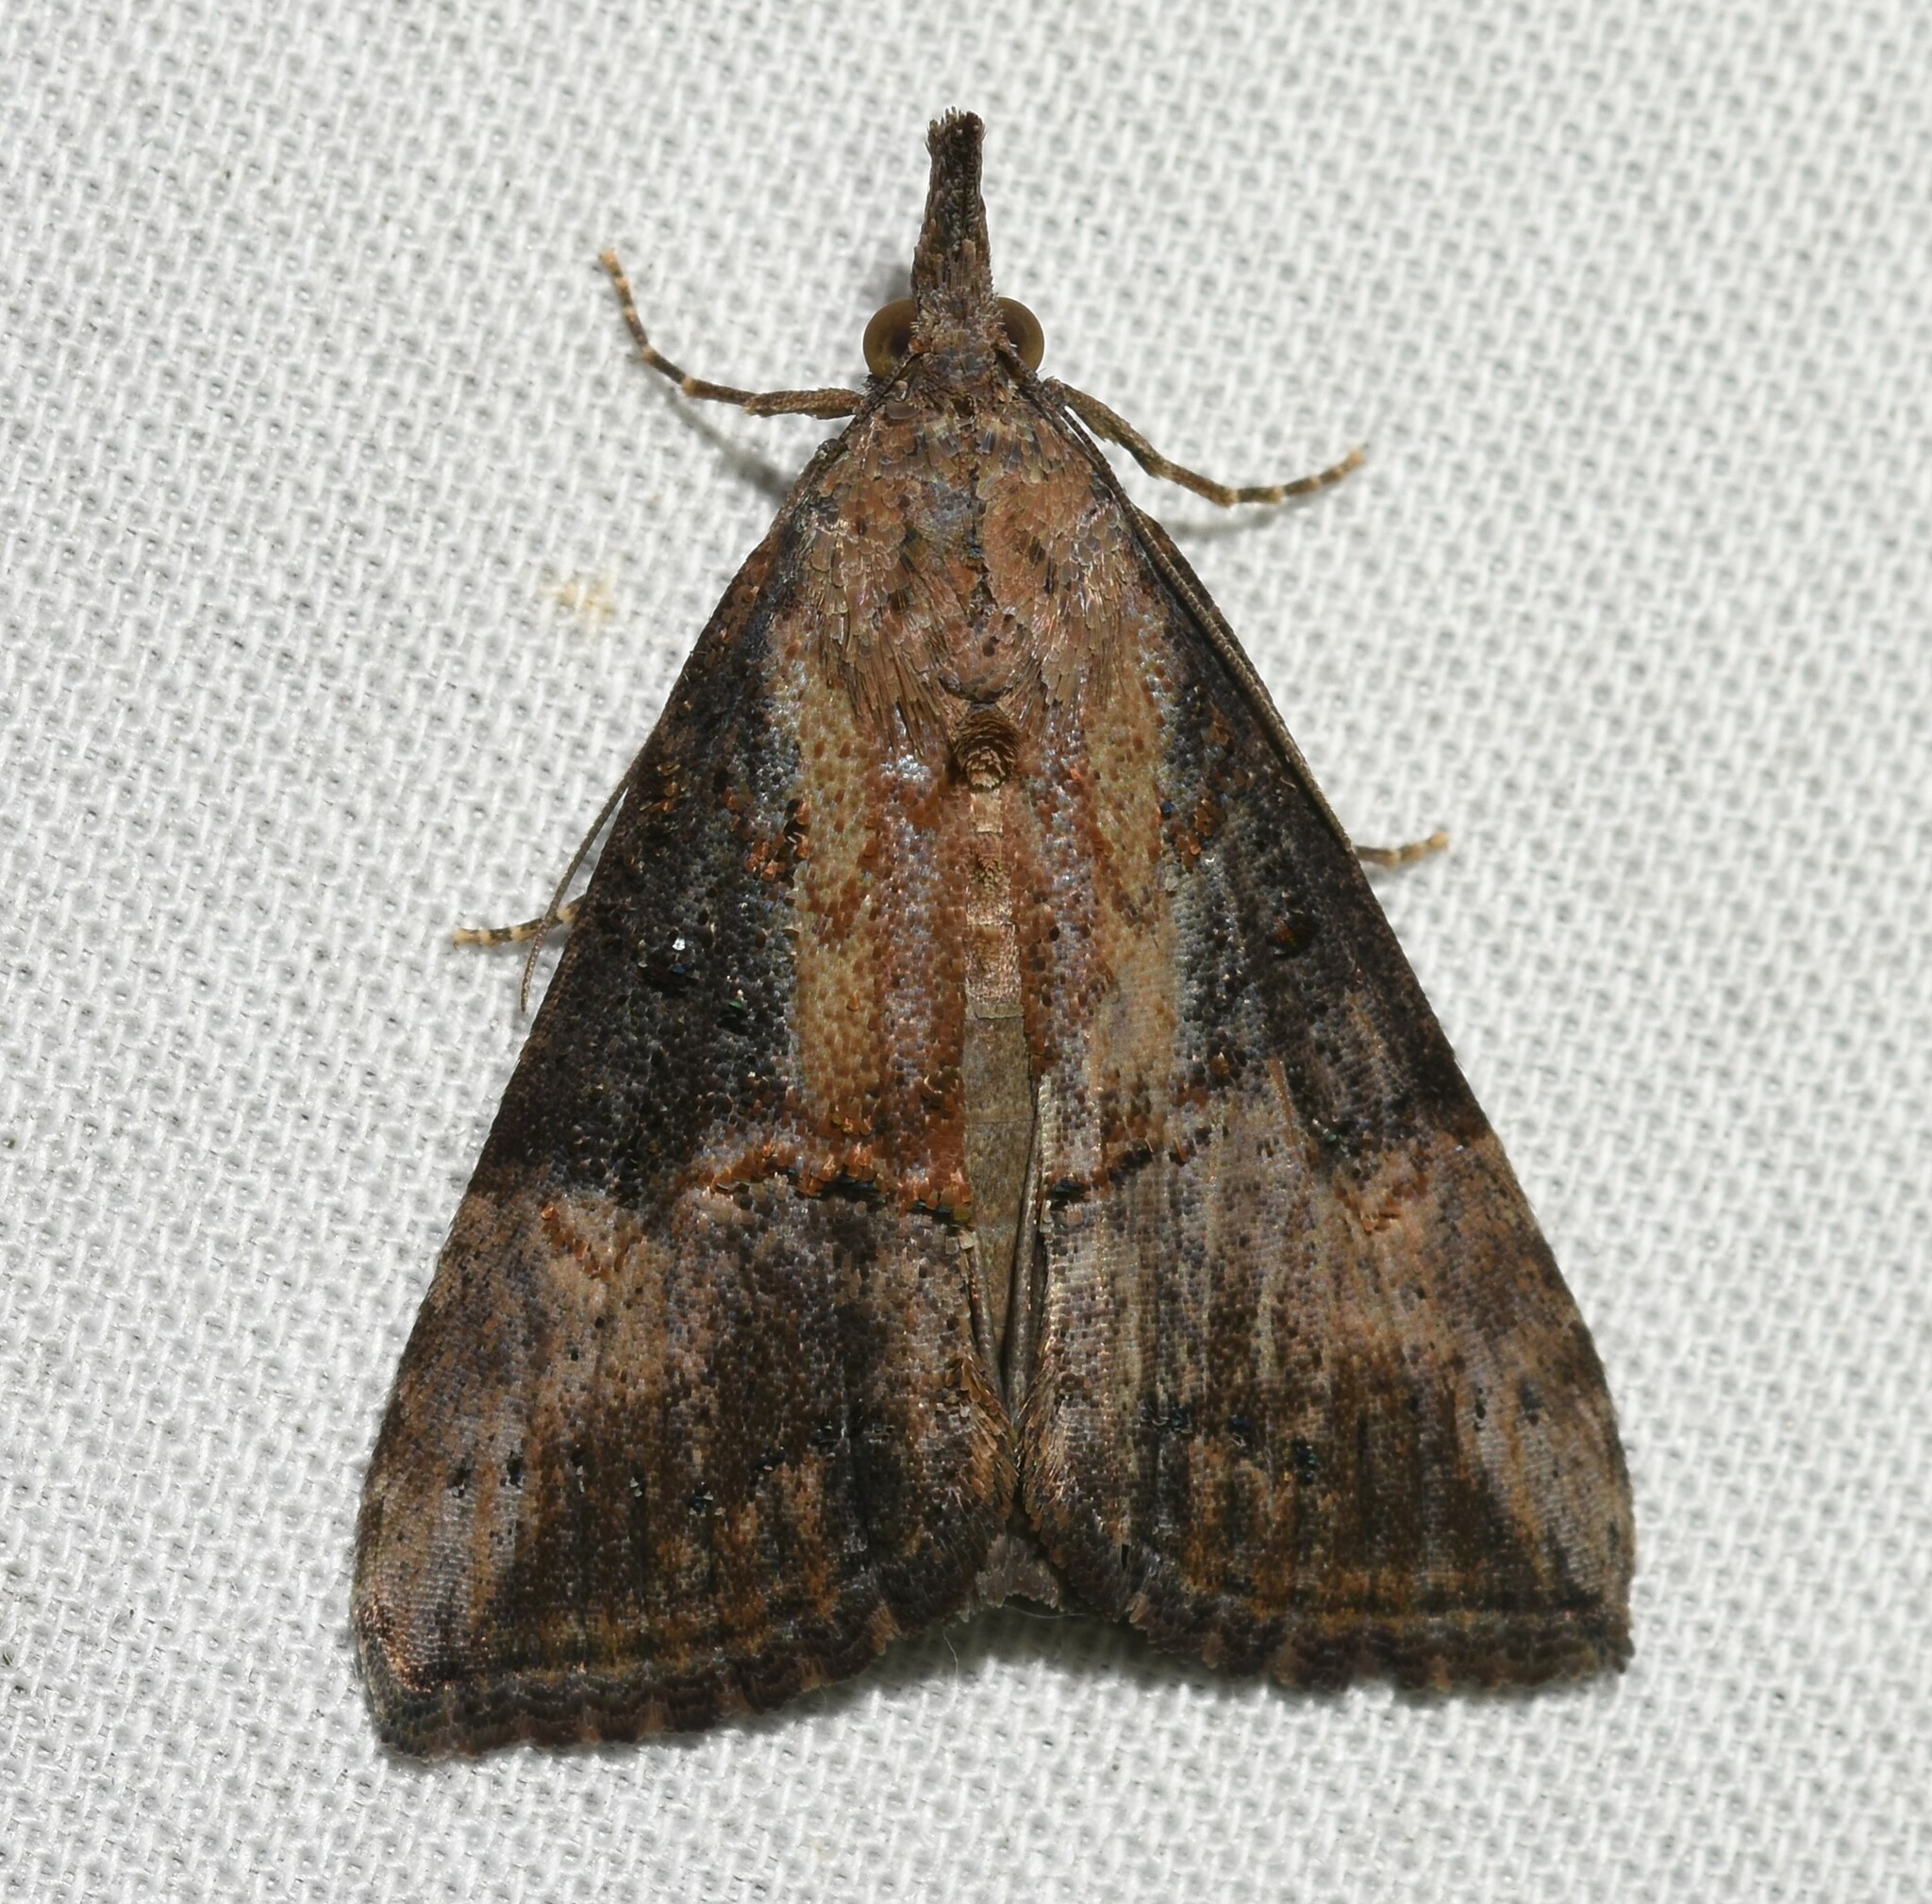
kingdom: Animalia
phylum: Arthropoda
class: Insecta
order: Lepidoptera
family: Erebidae
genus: Hypena
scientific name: Hypena scabra
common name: Green cloverworm
